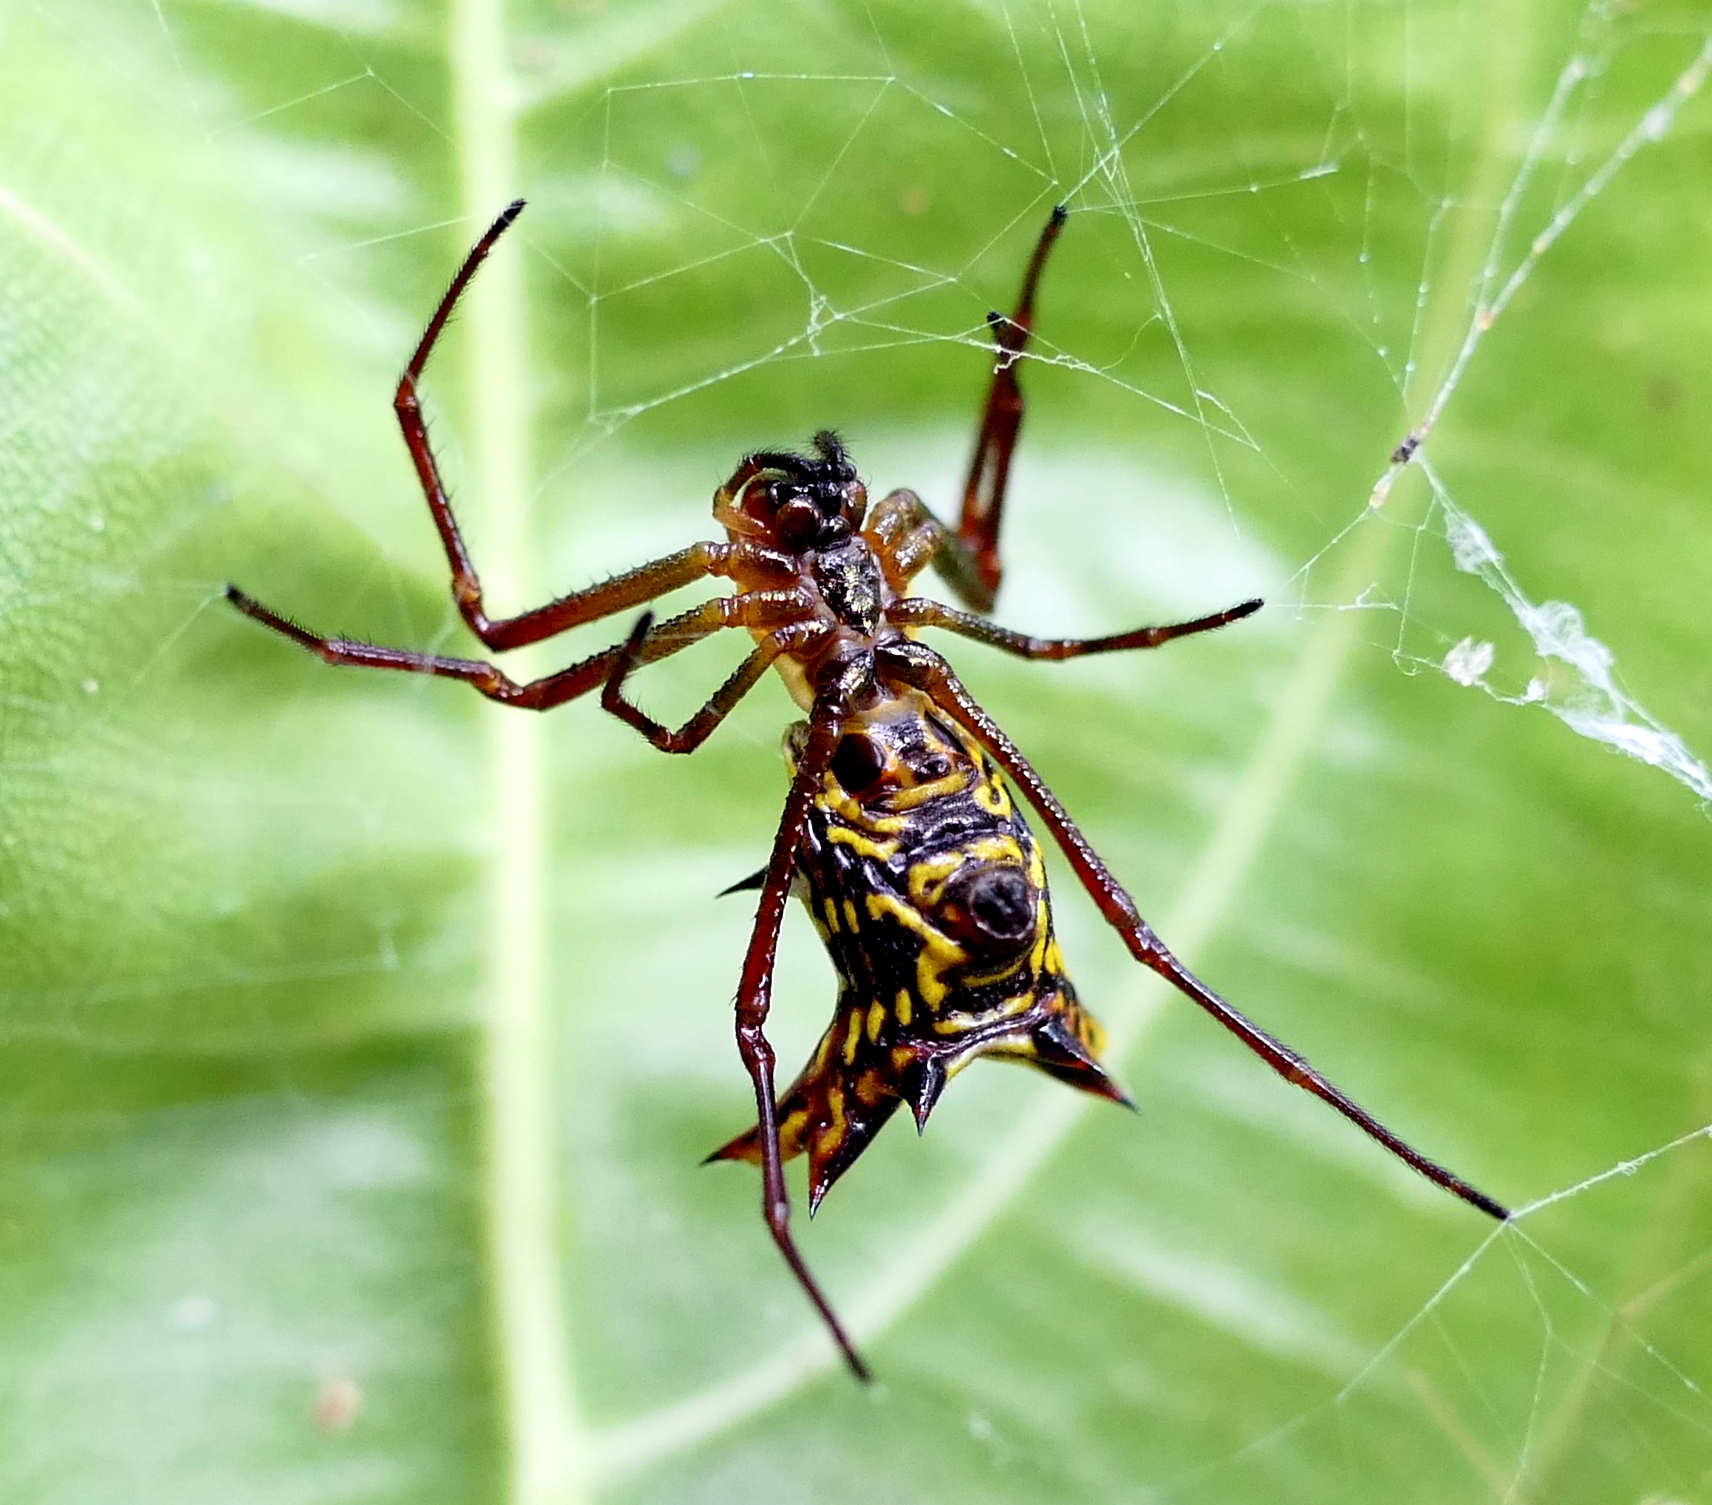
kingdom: Animalia
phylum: Arthropoda
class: Arachnida
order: Araneae
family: Araneidae
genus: Micrathena
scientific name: Micrathena fissispina
